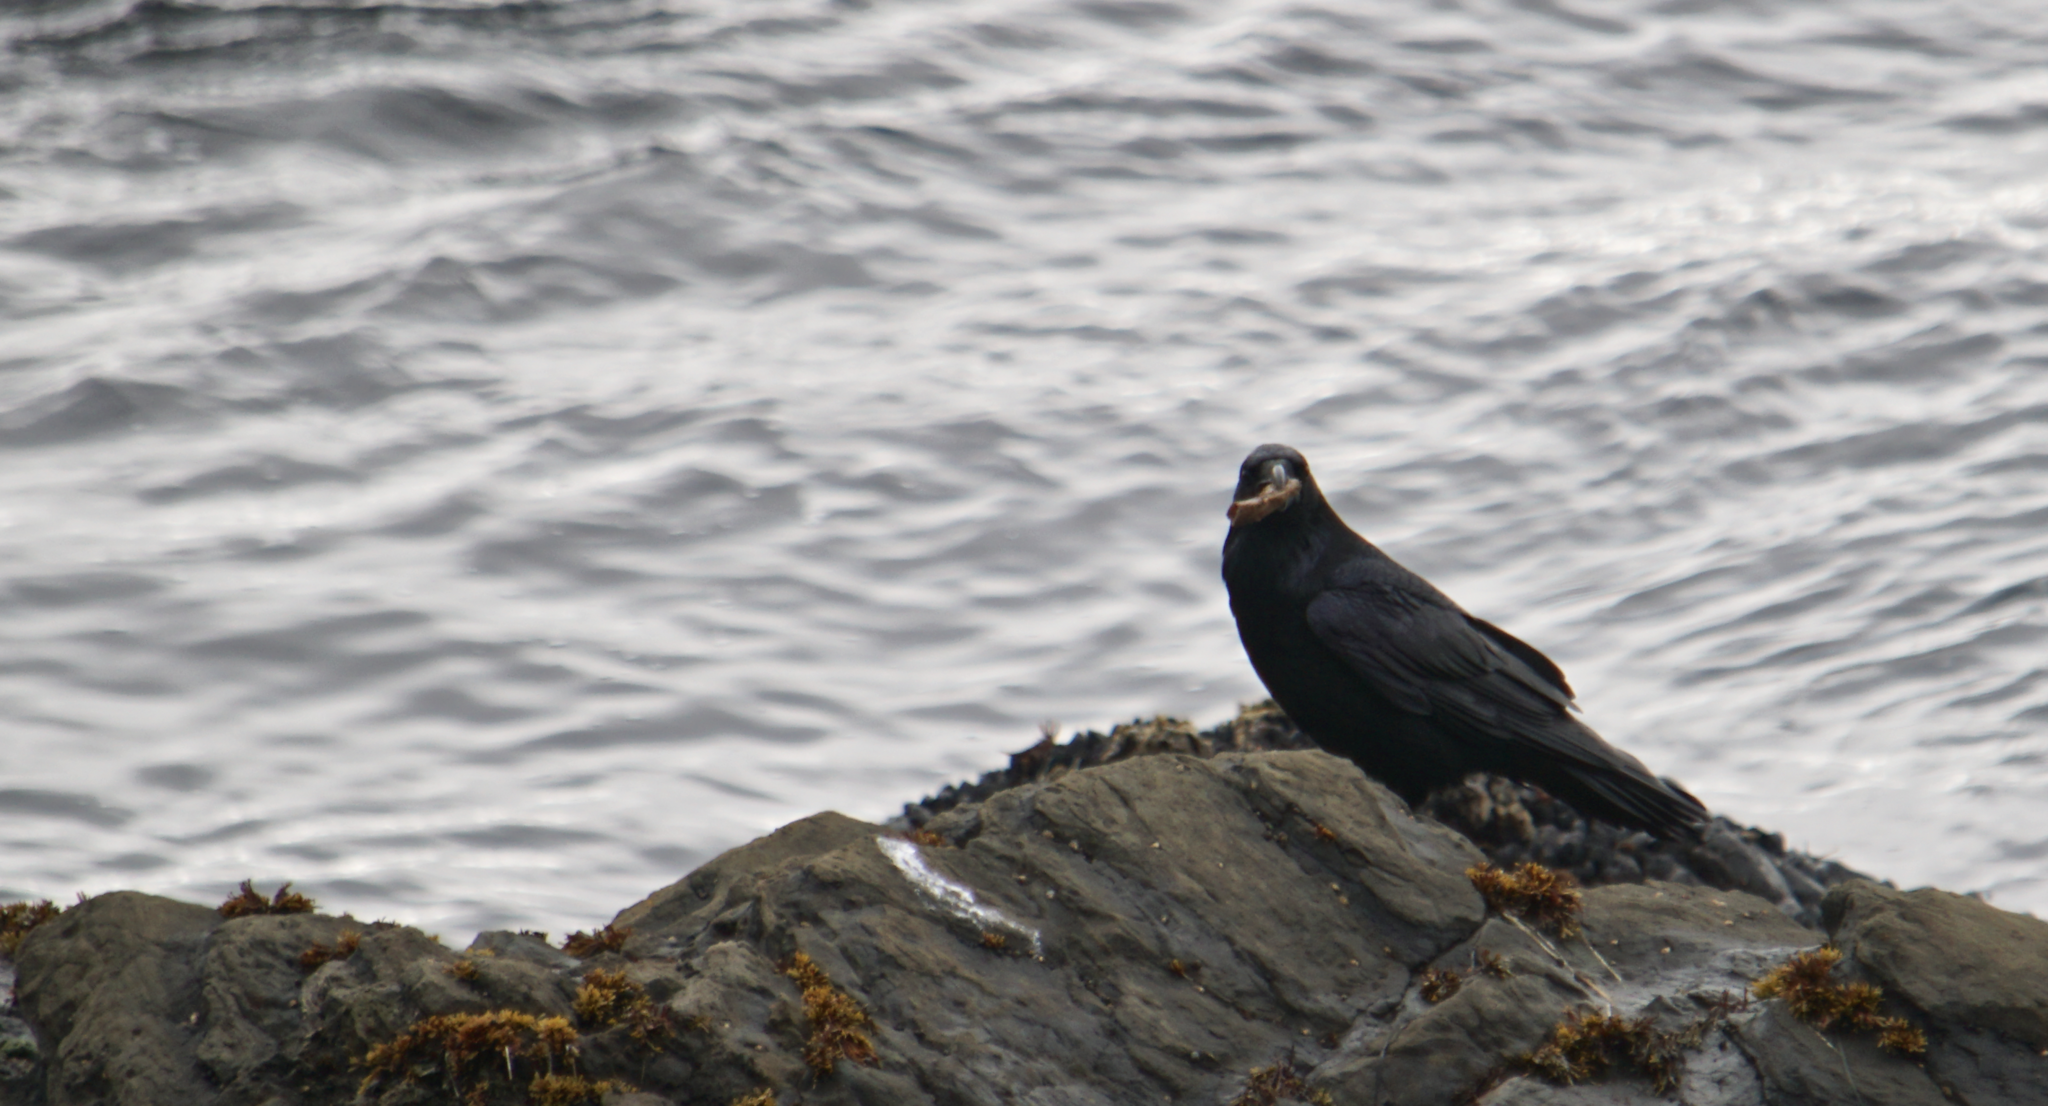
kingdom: Animalia
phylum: Chordata
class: Aves
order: Passeriformes
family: Corvidae
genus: Corvus
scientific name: Corvus corax
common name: Common raven
